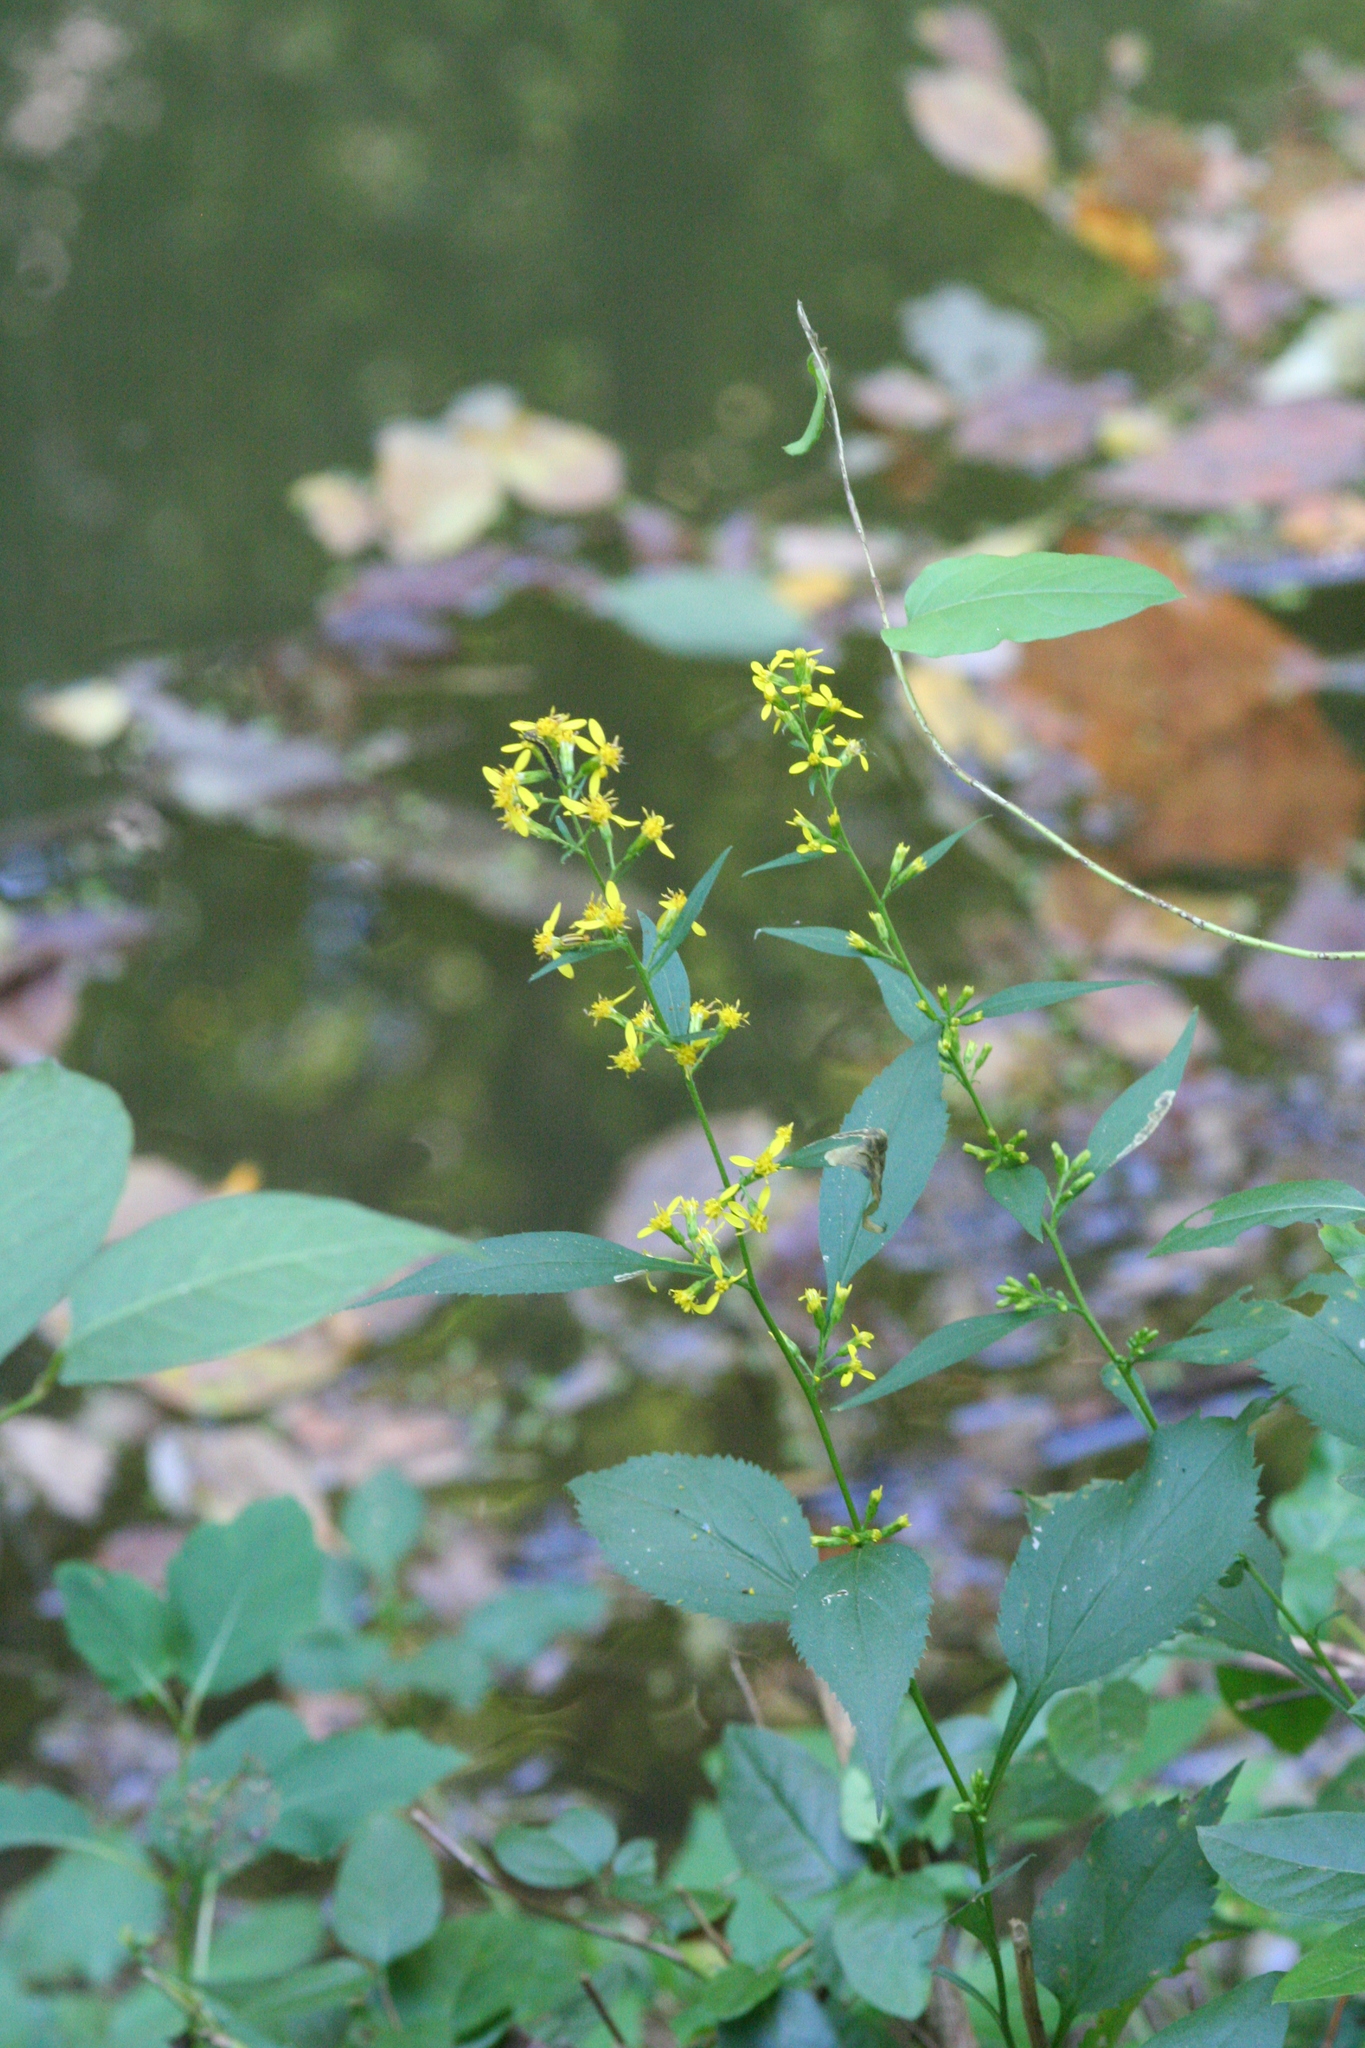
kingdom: Plantae
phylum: Tracheophyta
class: Magnoliopsida
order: Asterales
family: Asteraceae
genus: Solidago
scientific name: Solidago flexicaulis
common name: Zig-zag goldenrod
